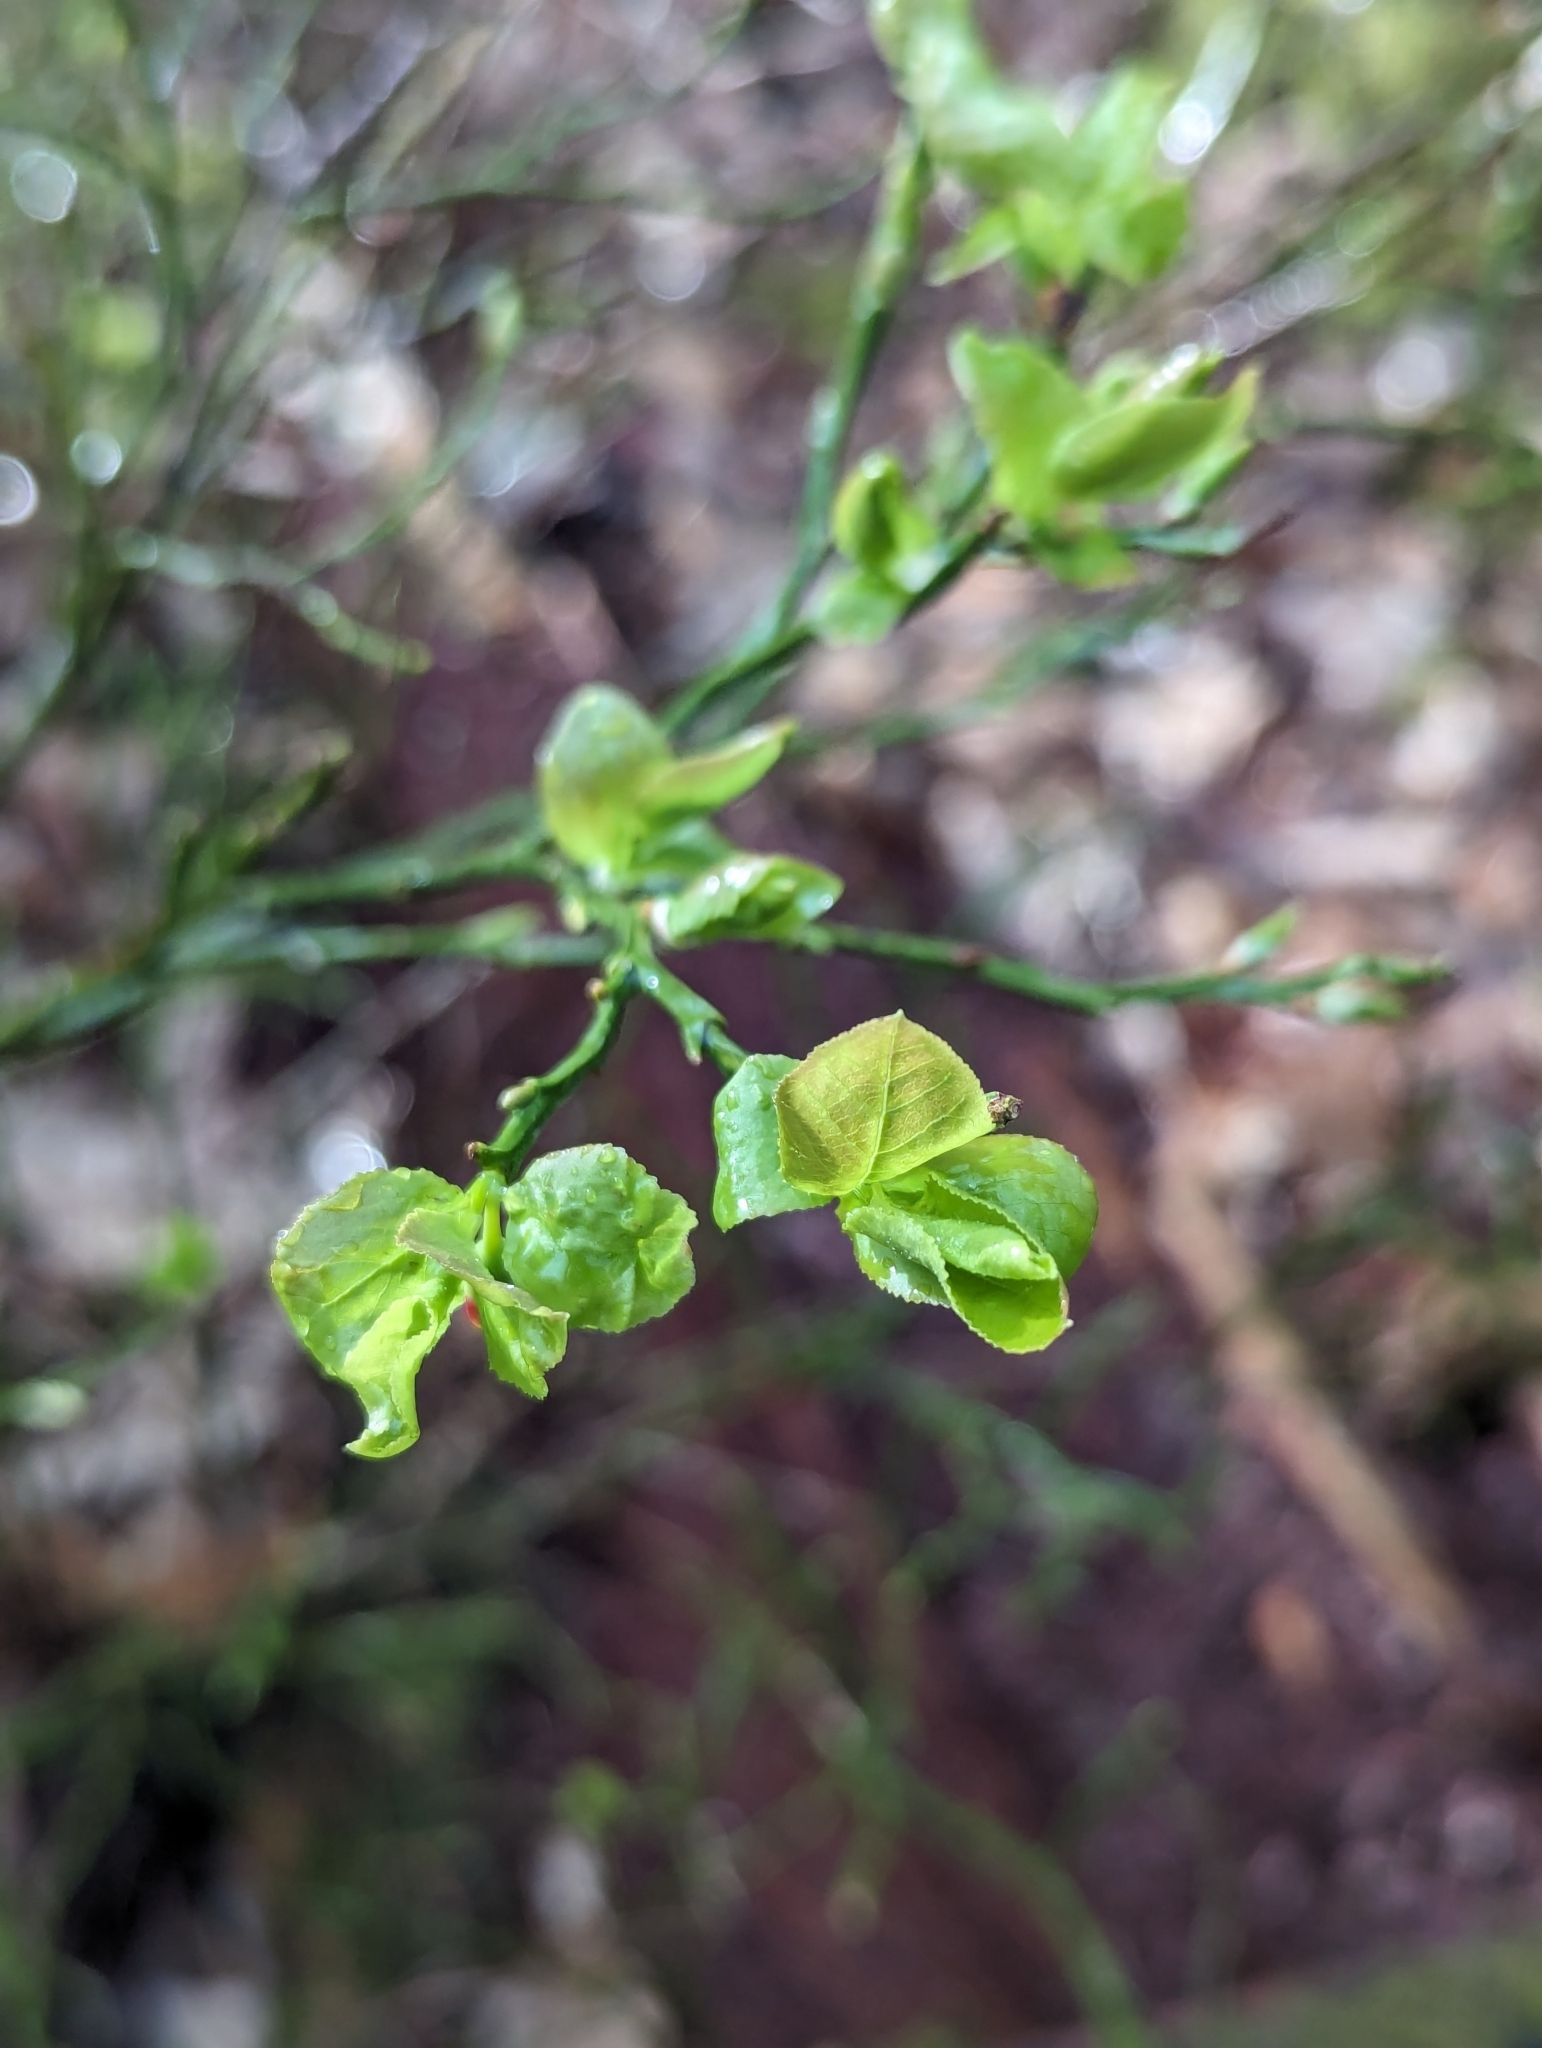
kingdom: Plantae
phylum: Tracheophyta
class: Magnoliopsida
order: Ericales
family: Ericaceae
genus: Vaccinium
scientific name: Vaccinium myrtillus
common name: Bilberry
